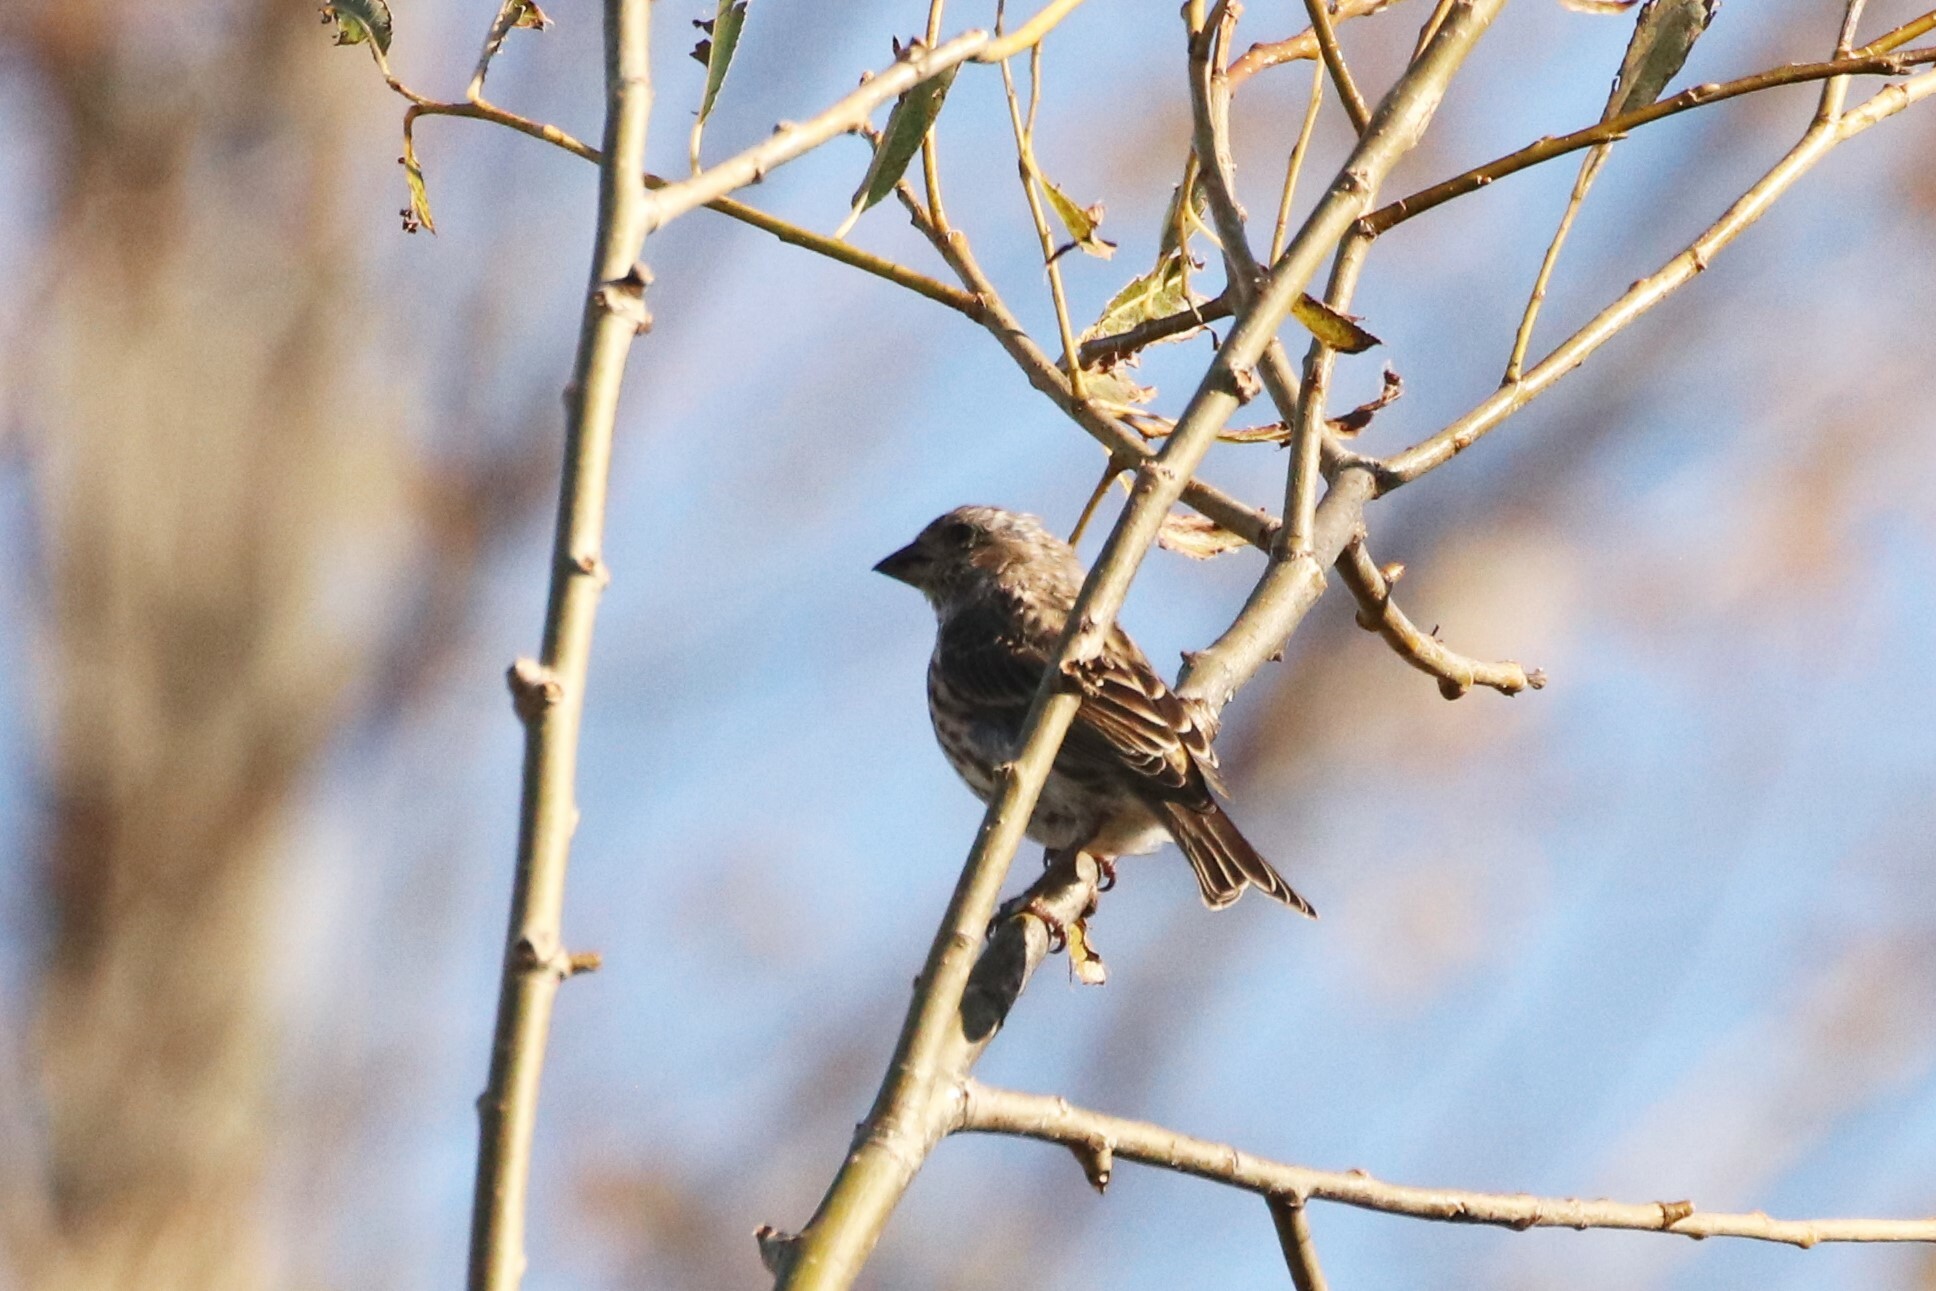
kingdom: Animalia
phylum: Chordata
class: Aves
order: Passeriformes
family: Fringillidae
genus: Haemorhous
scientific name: Haemorhous purpureus
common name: Purple finch
